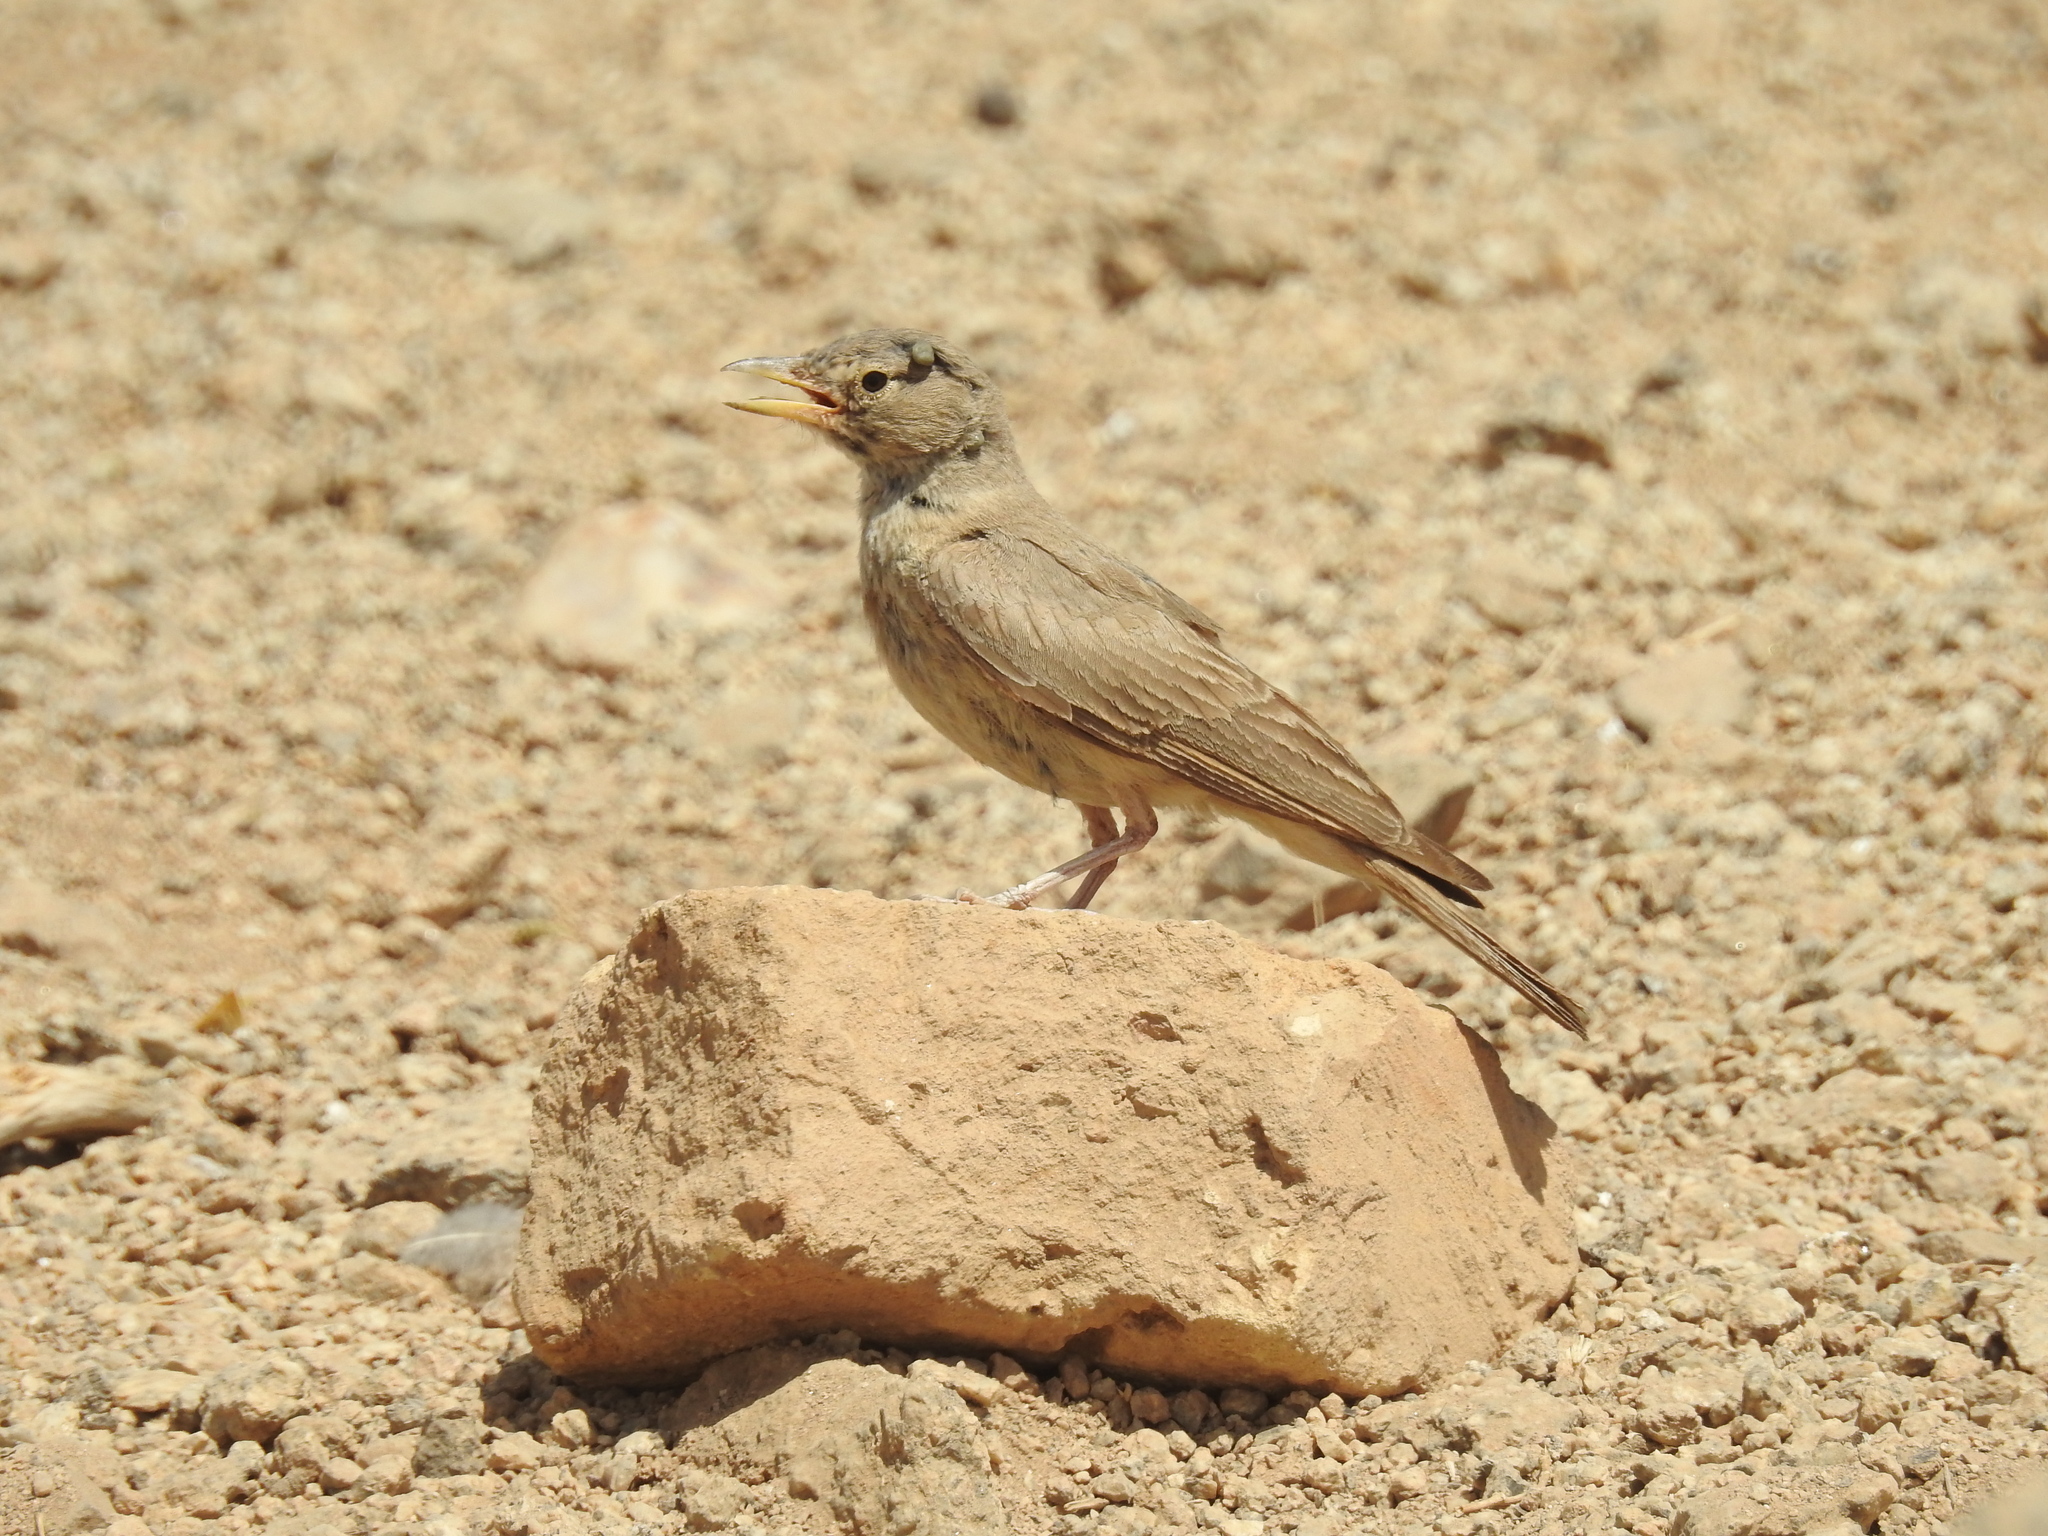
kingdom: Animalia
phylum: Chordata
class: Aves
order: Passeriformes
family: Alaudidae
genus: Ammomanes
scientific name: Ammomanes deserti
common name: Desert lark
